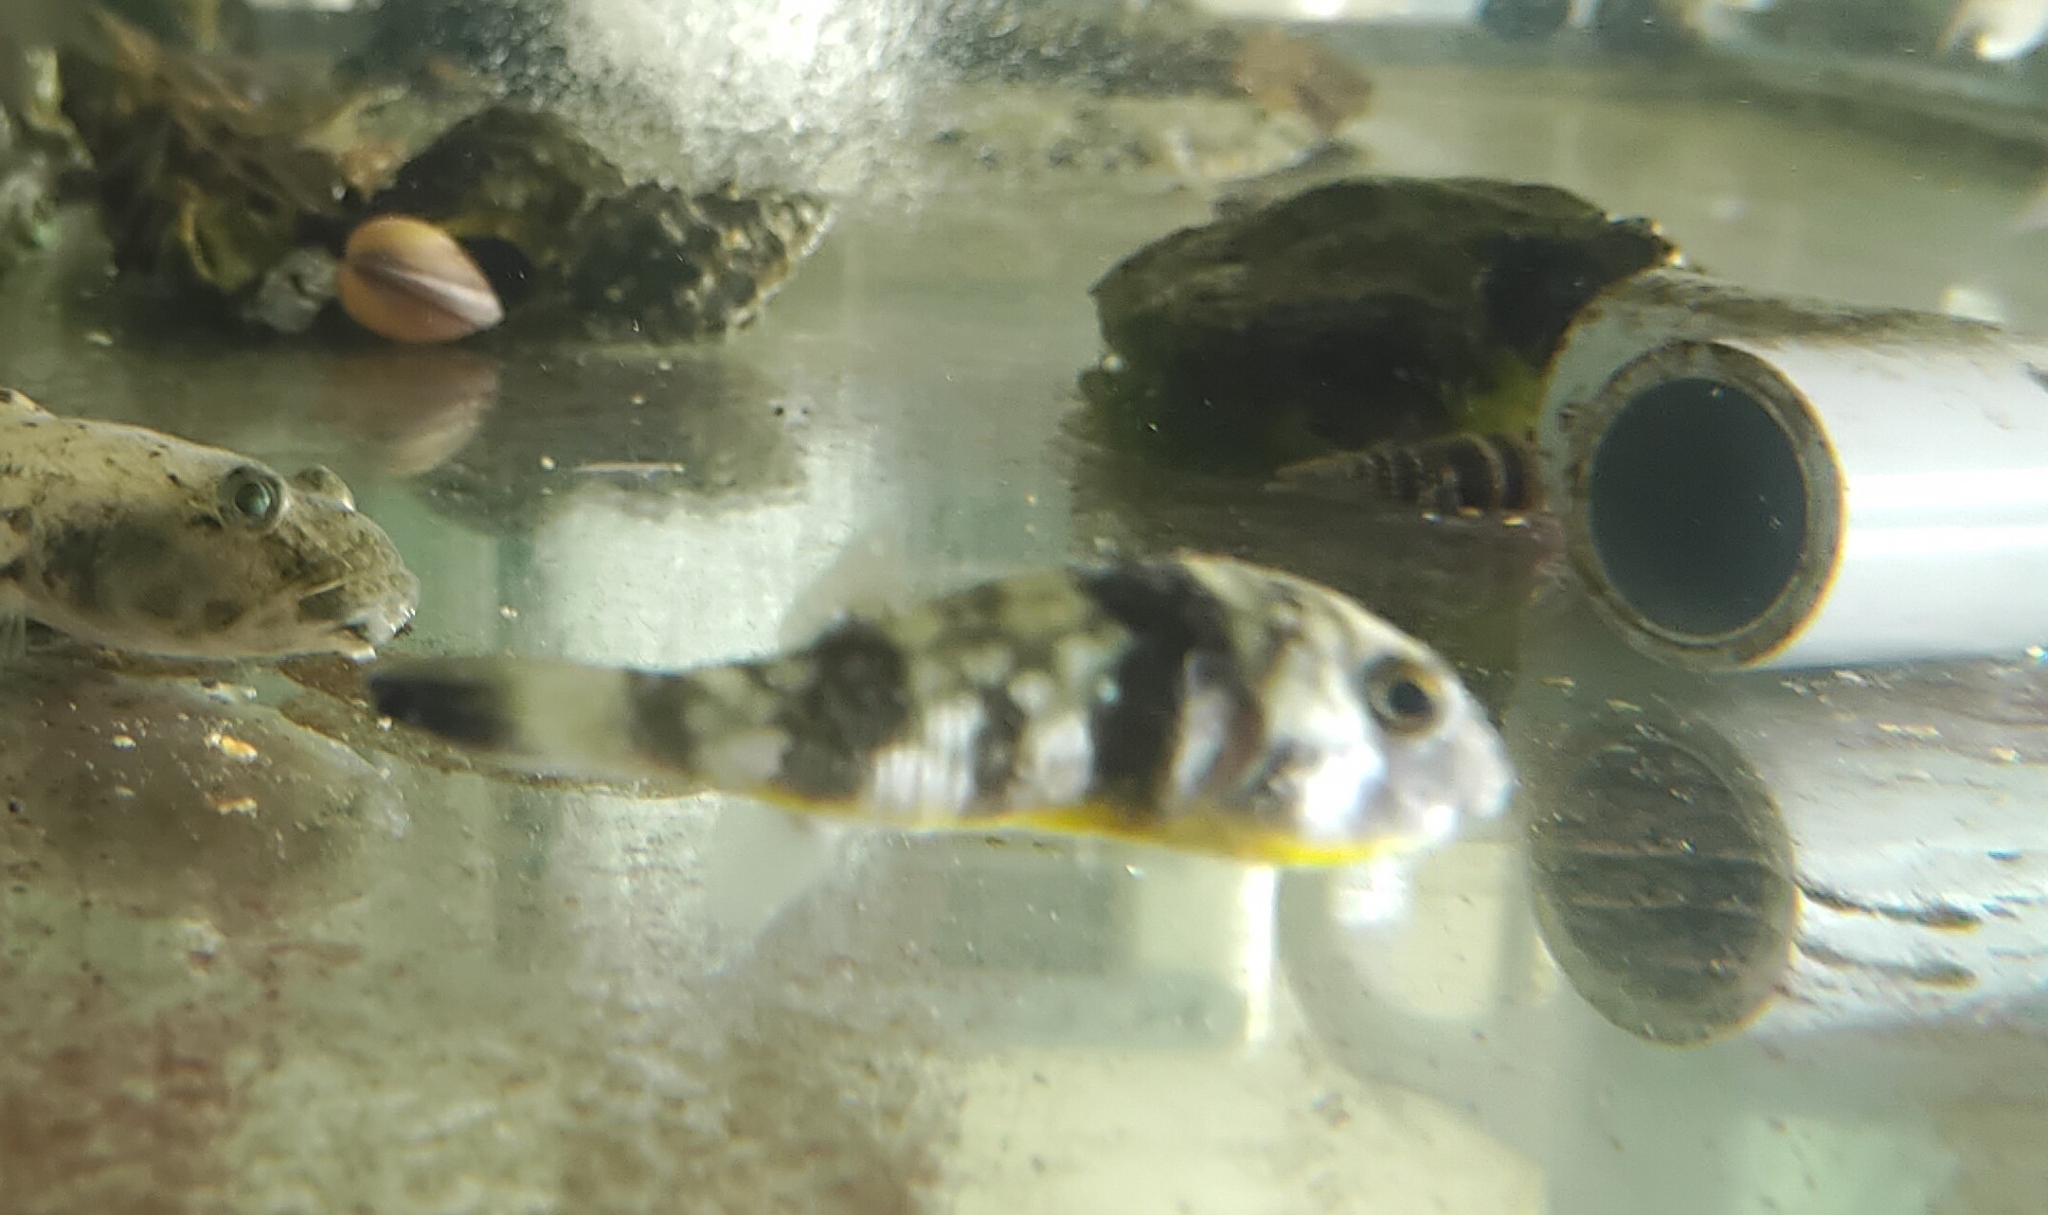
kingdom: Animalia
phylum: Chordata
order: Tetraodontiformes
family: Tetraodontidae
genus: Chelonodontops
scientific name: Chelonodontops patoca
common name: Gangetic blow fish
